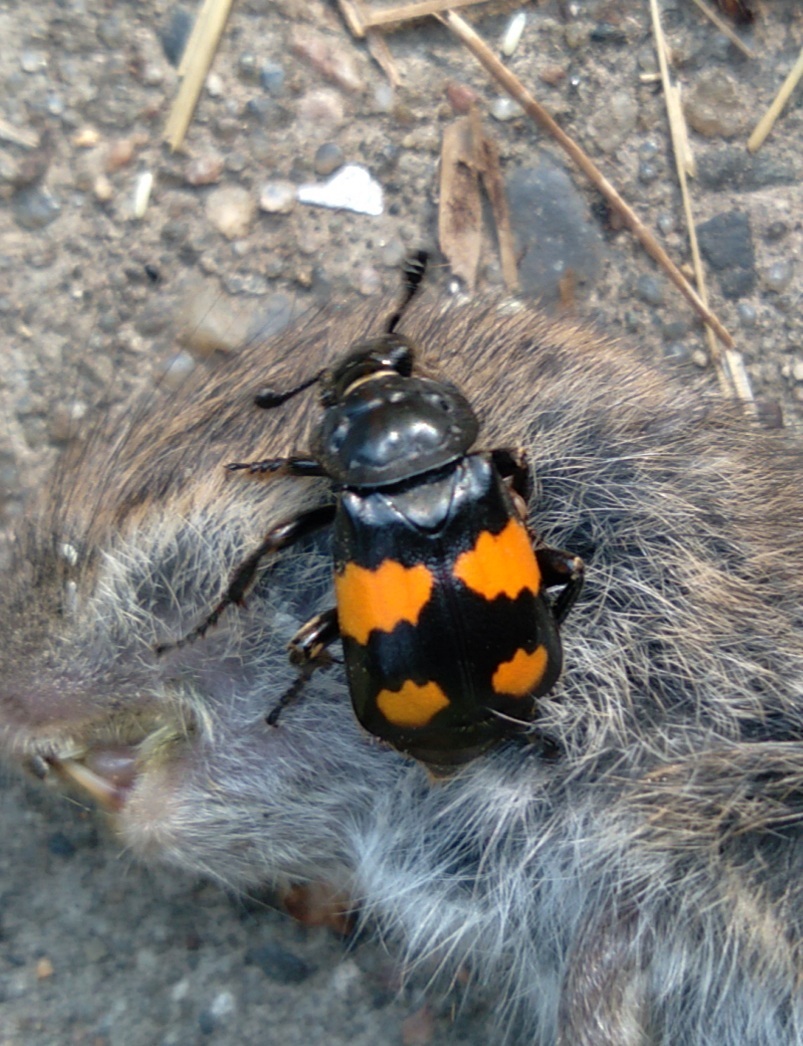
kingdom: Animalia
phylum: Arthropoda
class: Insecta
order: Coleoptera
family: Staphylinidae
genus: Nicrophorus
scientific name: Nicrophorus vespilloides
